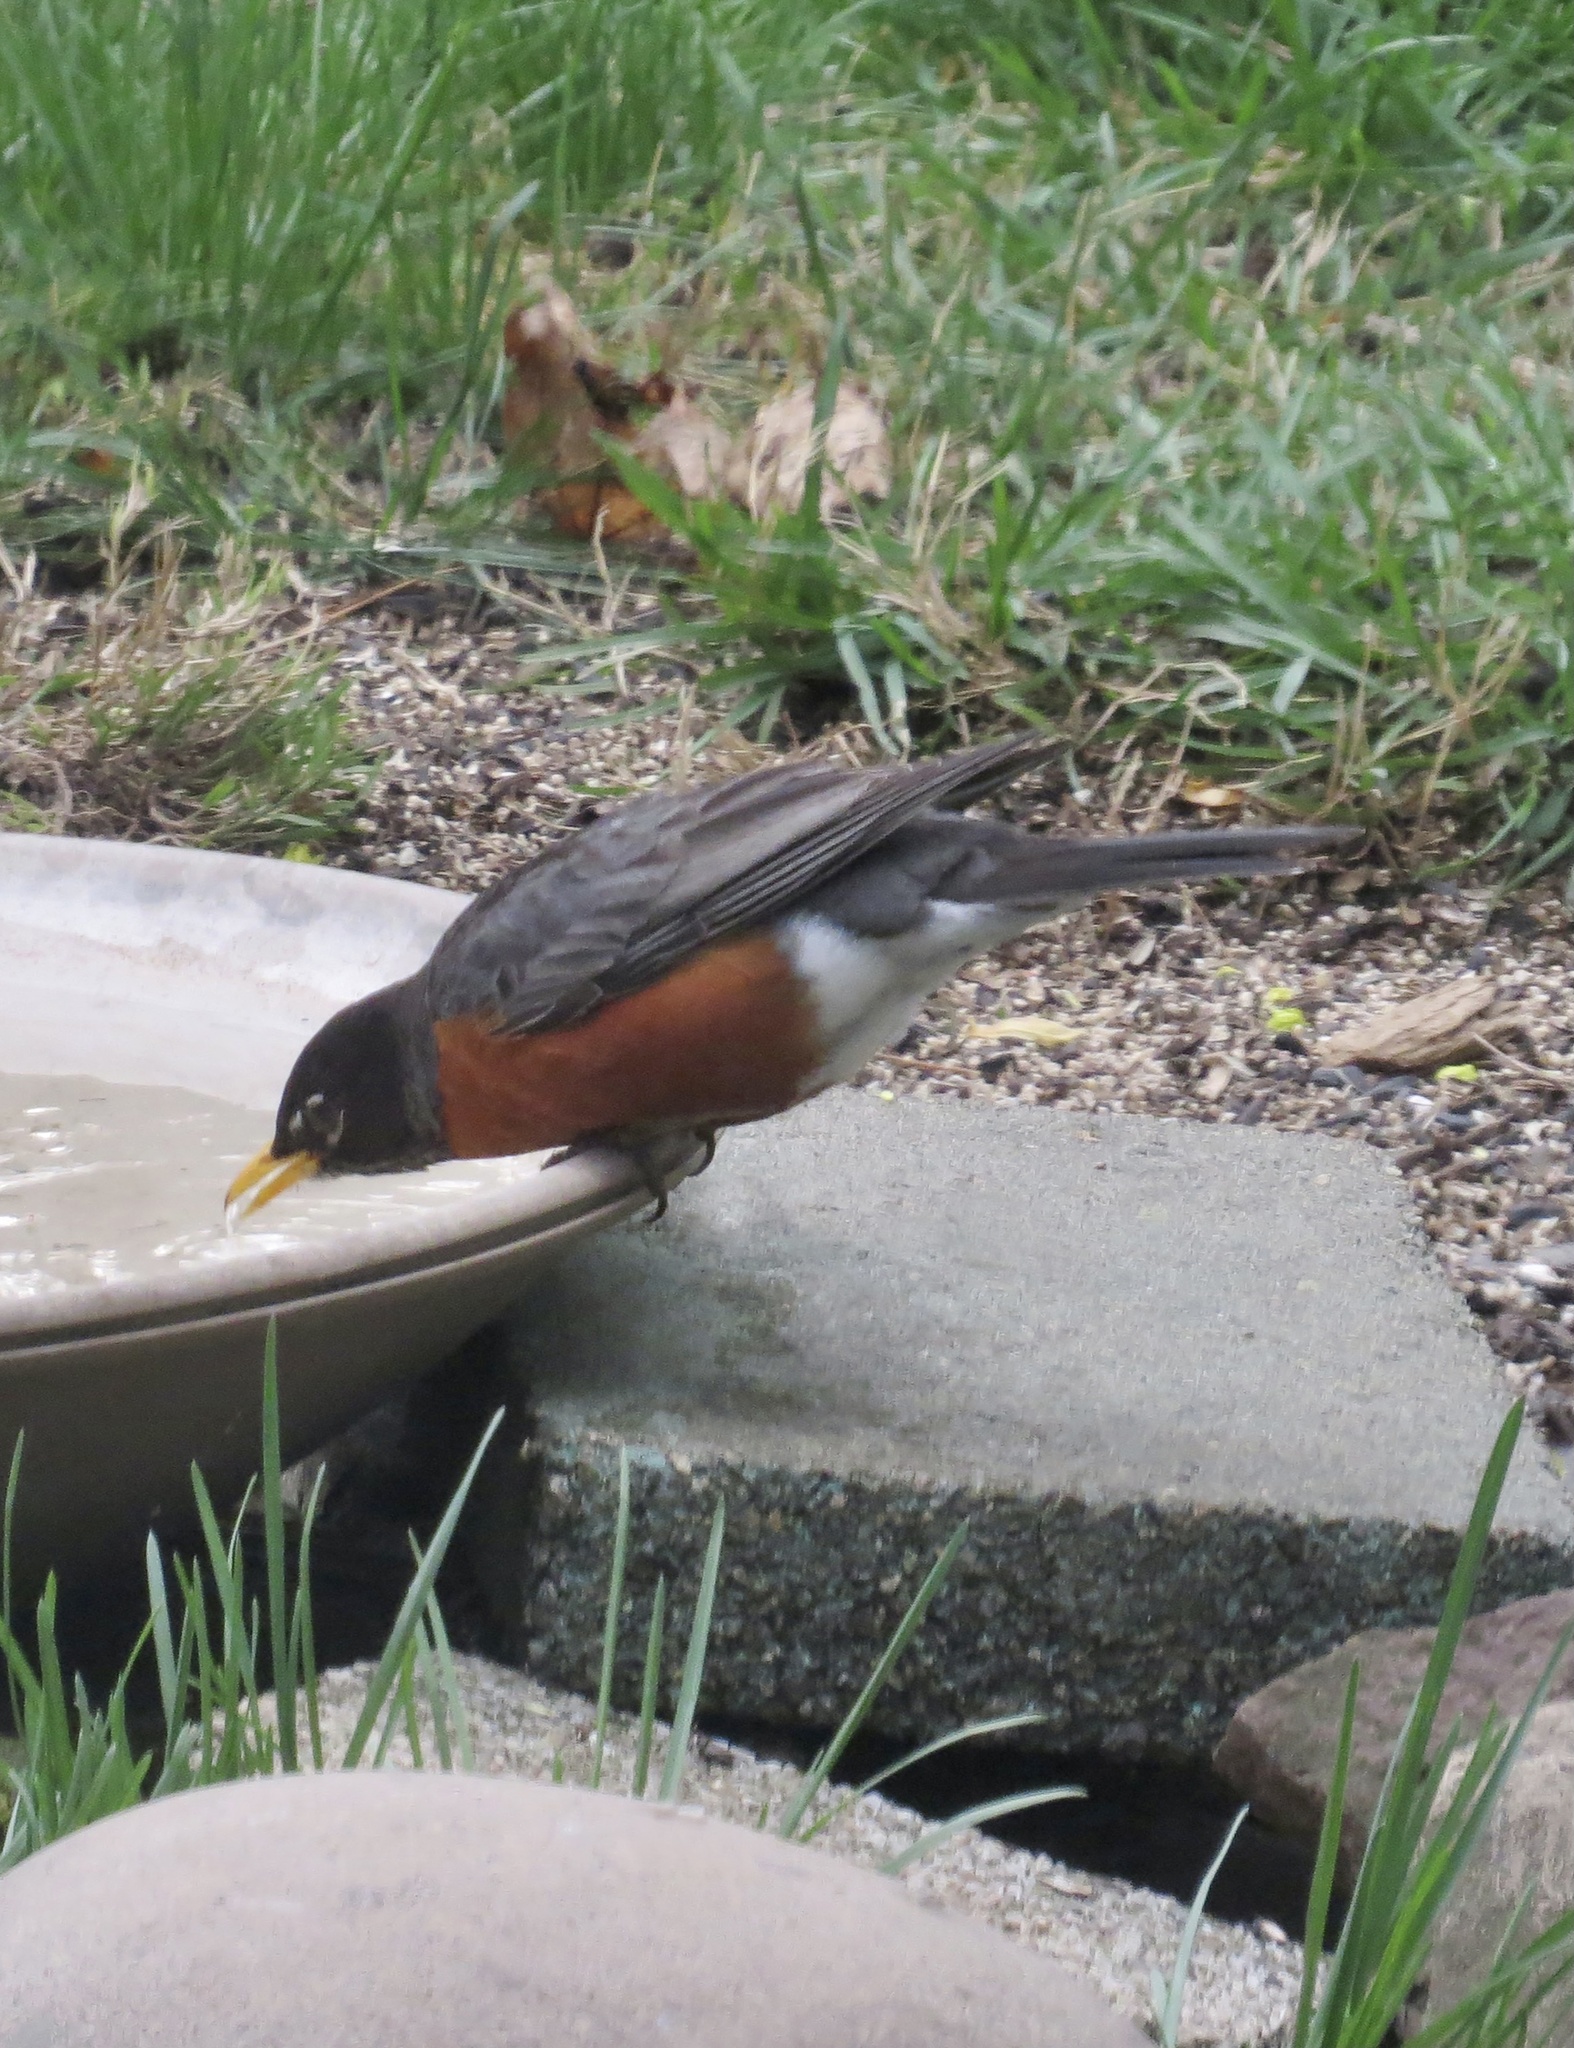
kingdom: Animalia
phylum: Chordata
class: Aves
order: Passeriformes
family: Turdidae
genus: Turdus
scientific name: Turdus migratorius
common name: American robin
